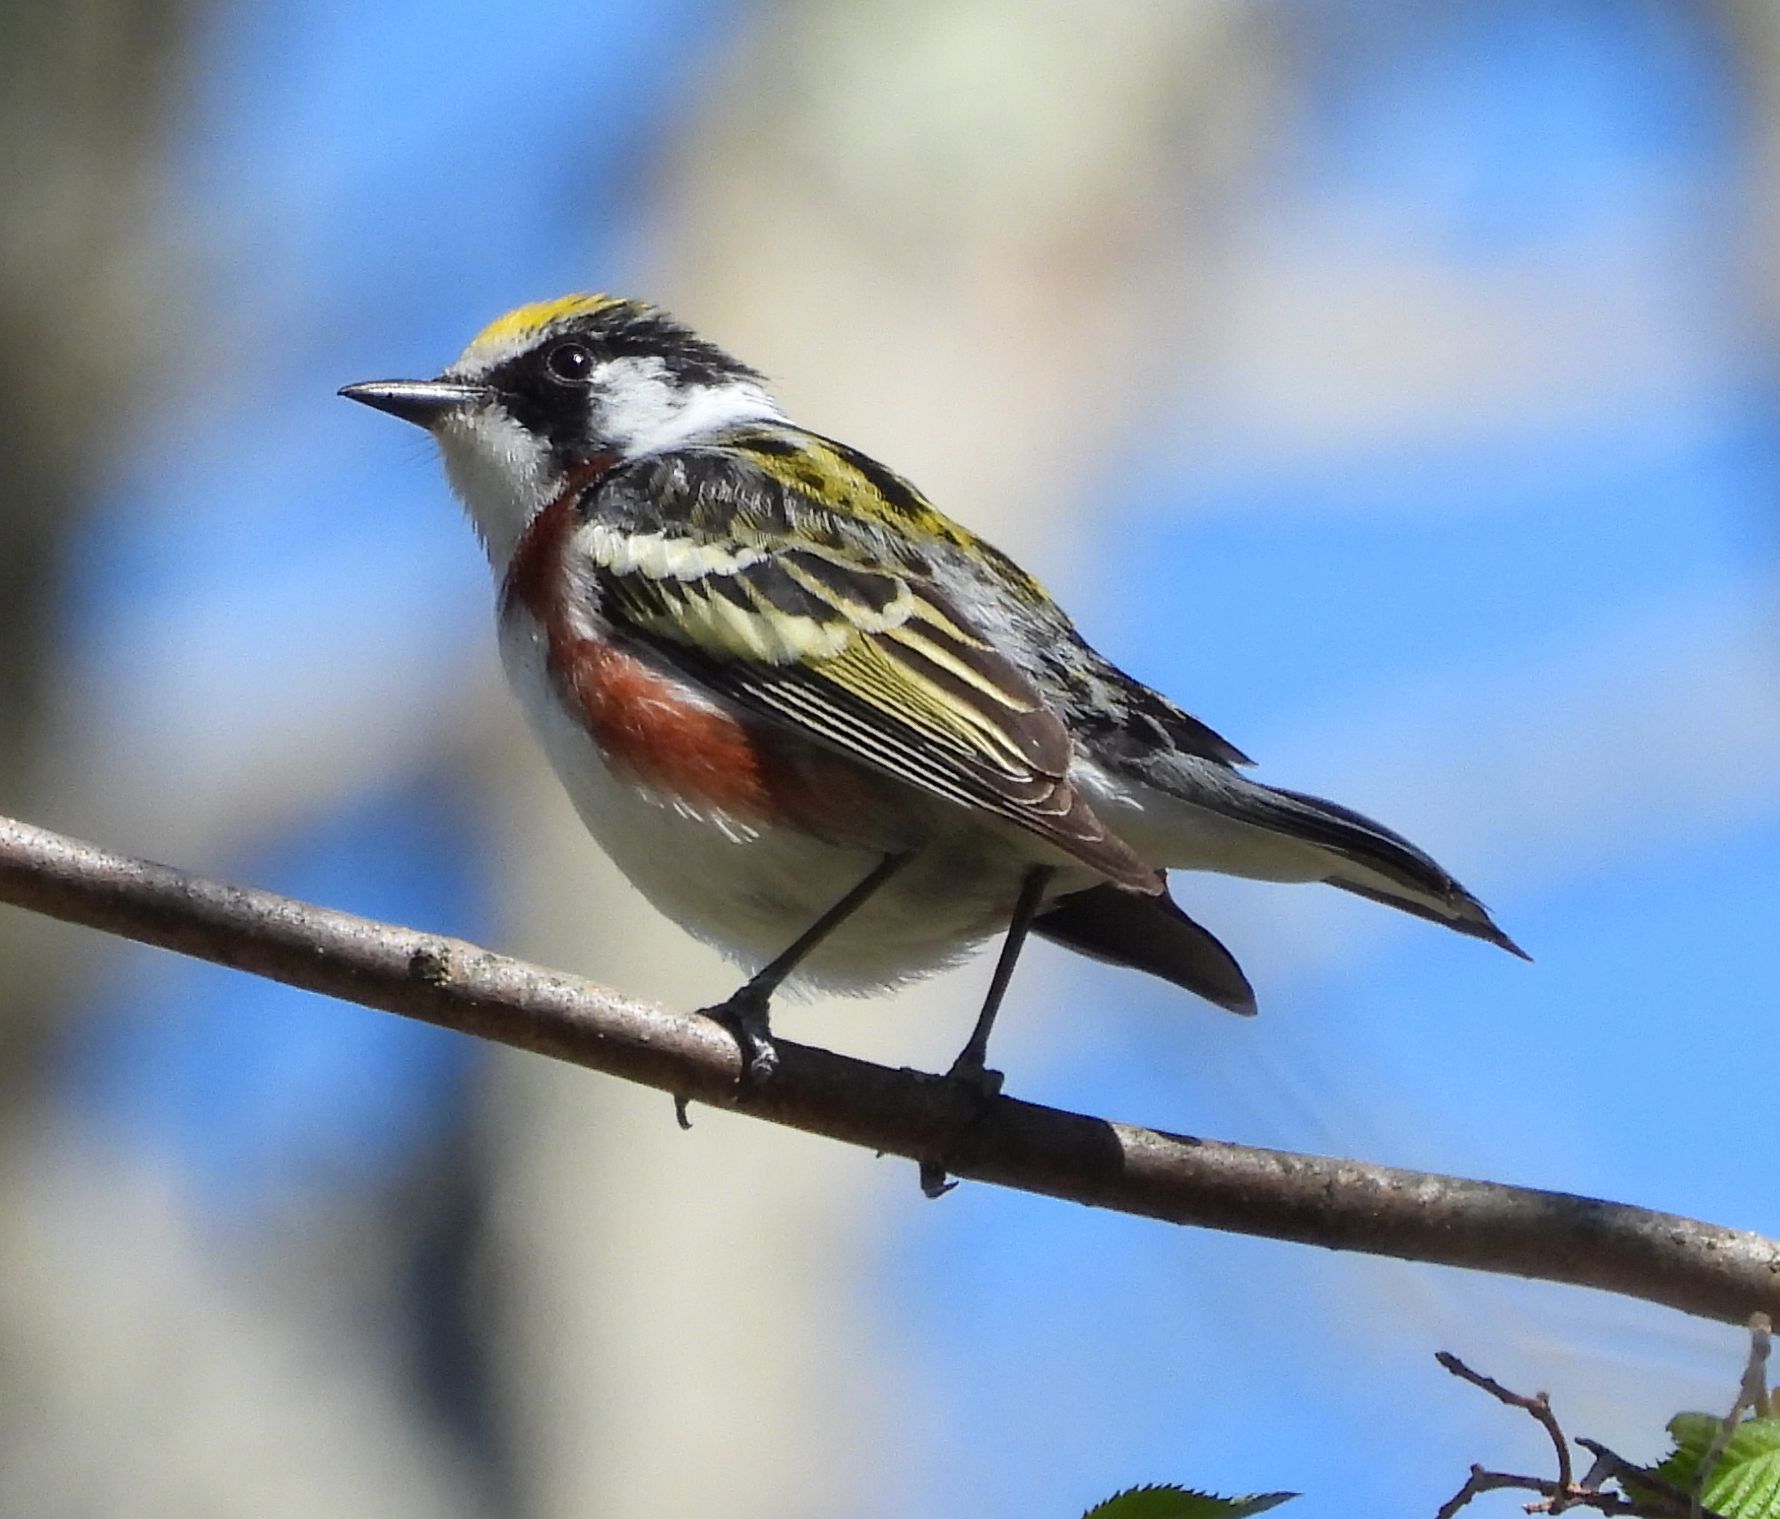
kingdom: Animalia
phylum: Chordata
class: Aves
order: Passeriformes
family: Parulidae
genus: Setophaga
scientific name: Setophaga pensylvanica
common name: Chestnut-sided warbler
